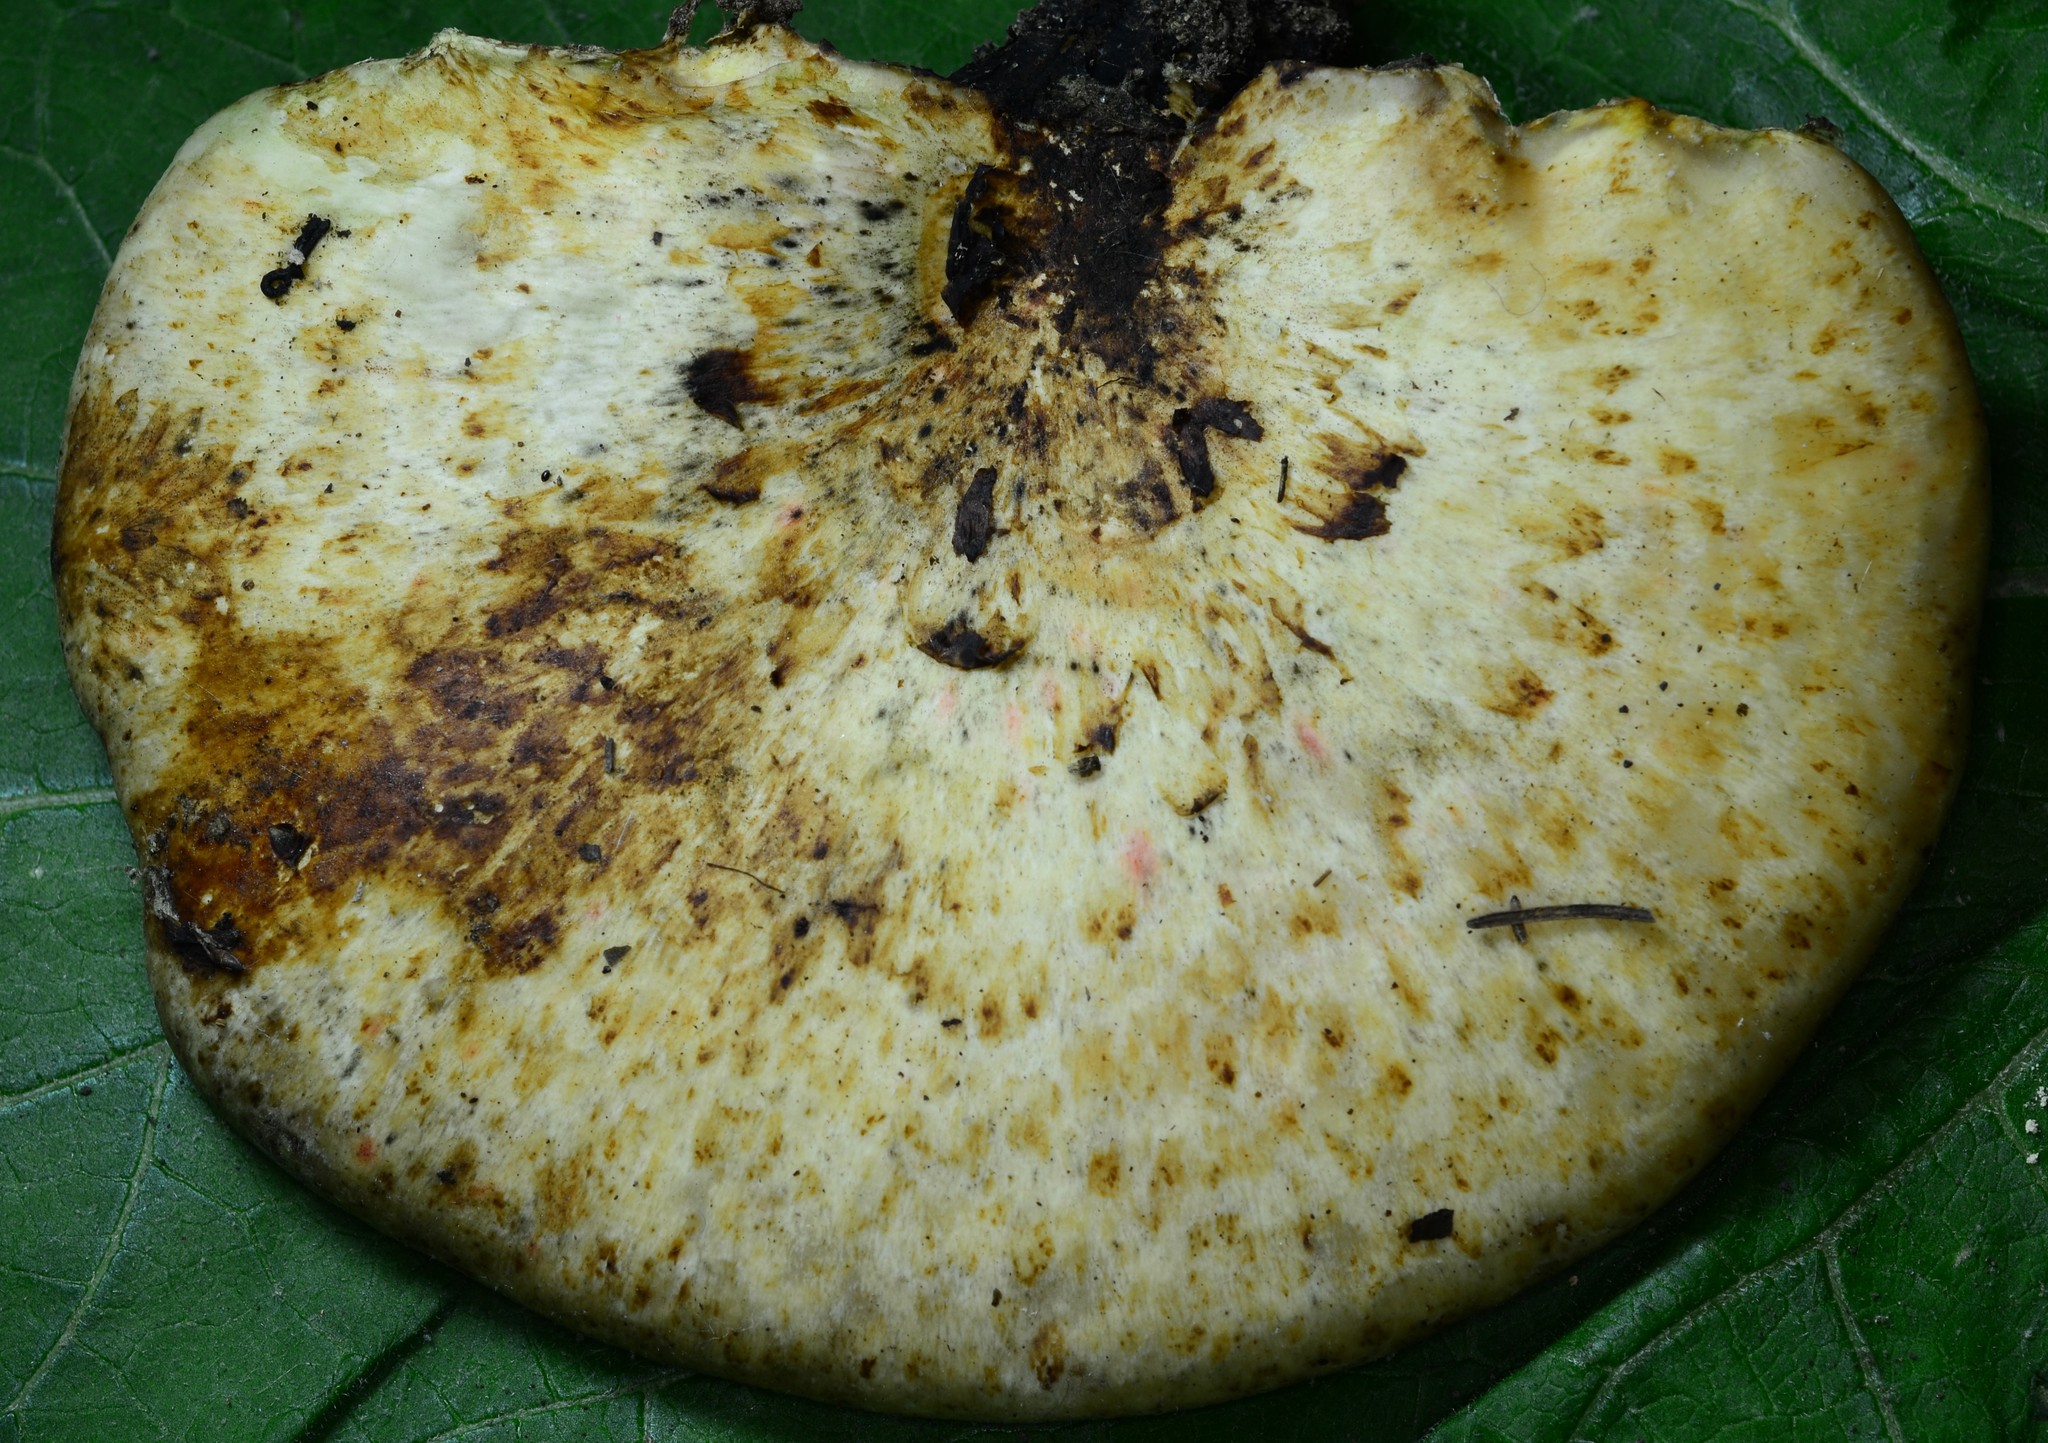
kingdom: Fungi
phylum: Basidiomycota
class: Agaricomycetes
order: Polyporales
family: Polyporaceae
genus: Cerioporus
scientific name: Cerioporus squamosus
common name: Dryad's saddle
